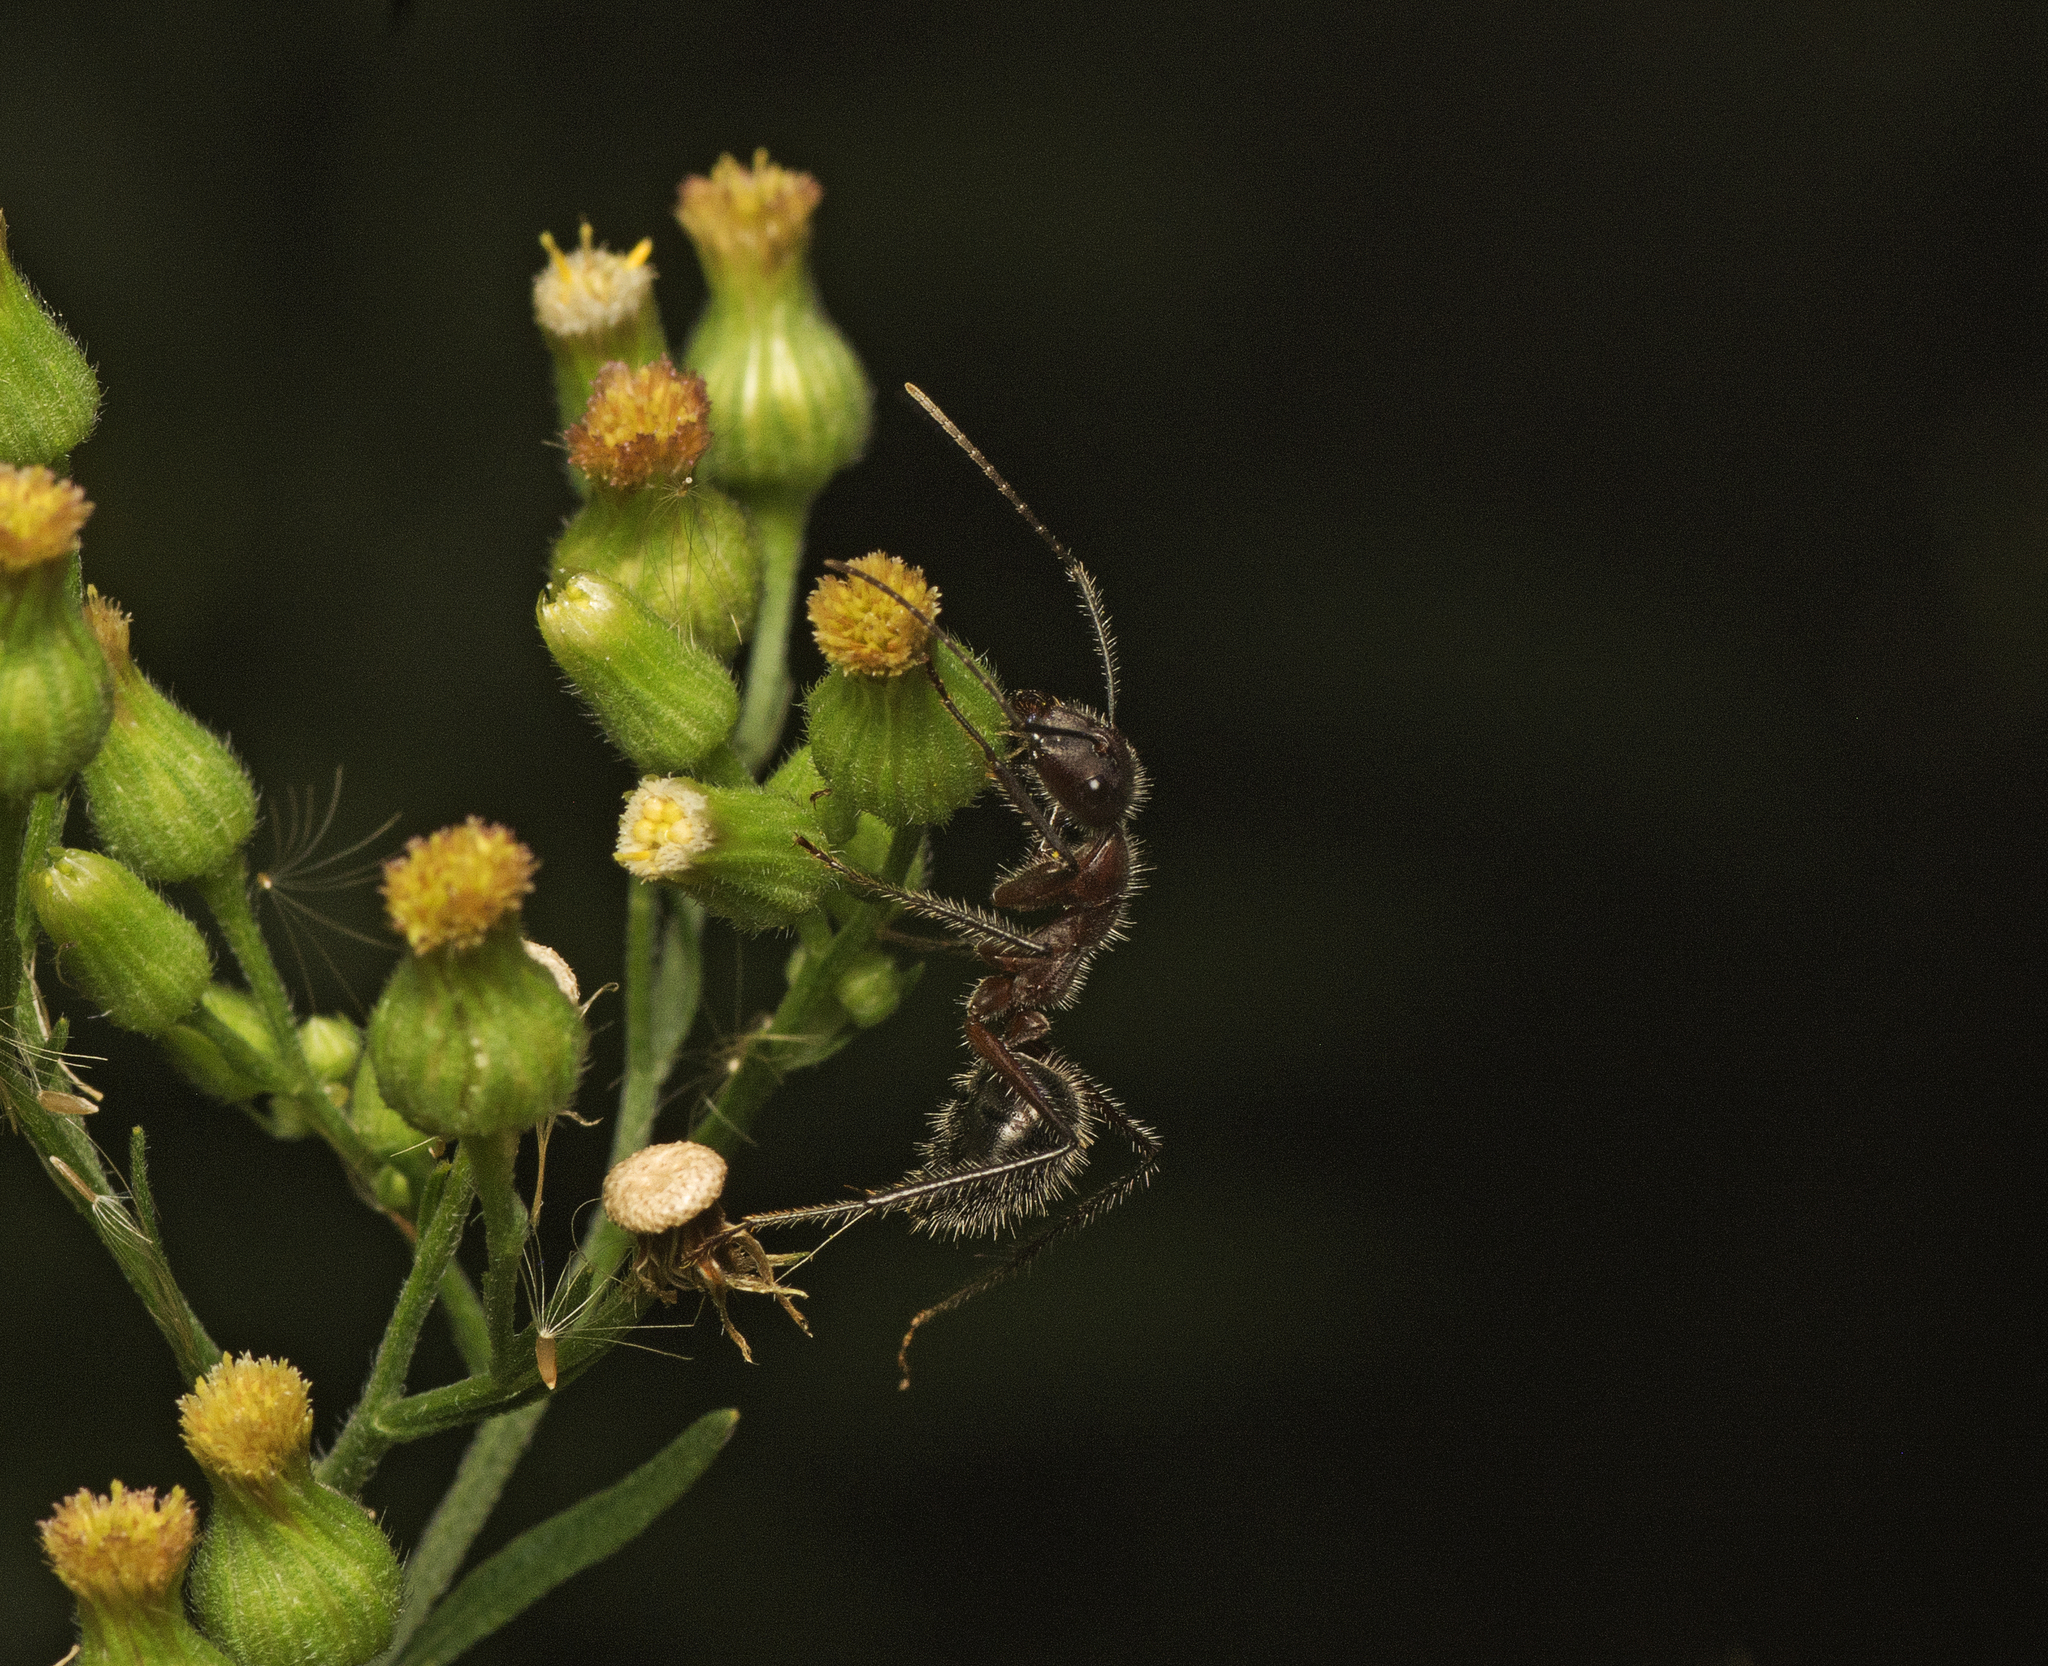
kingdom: Animalia
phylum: Arthropoda
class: Insecta
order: Hymenoptera
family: Formicidae
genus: Camponotus
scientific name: Camponotus intrepidus
